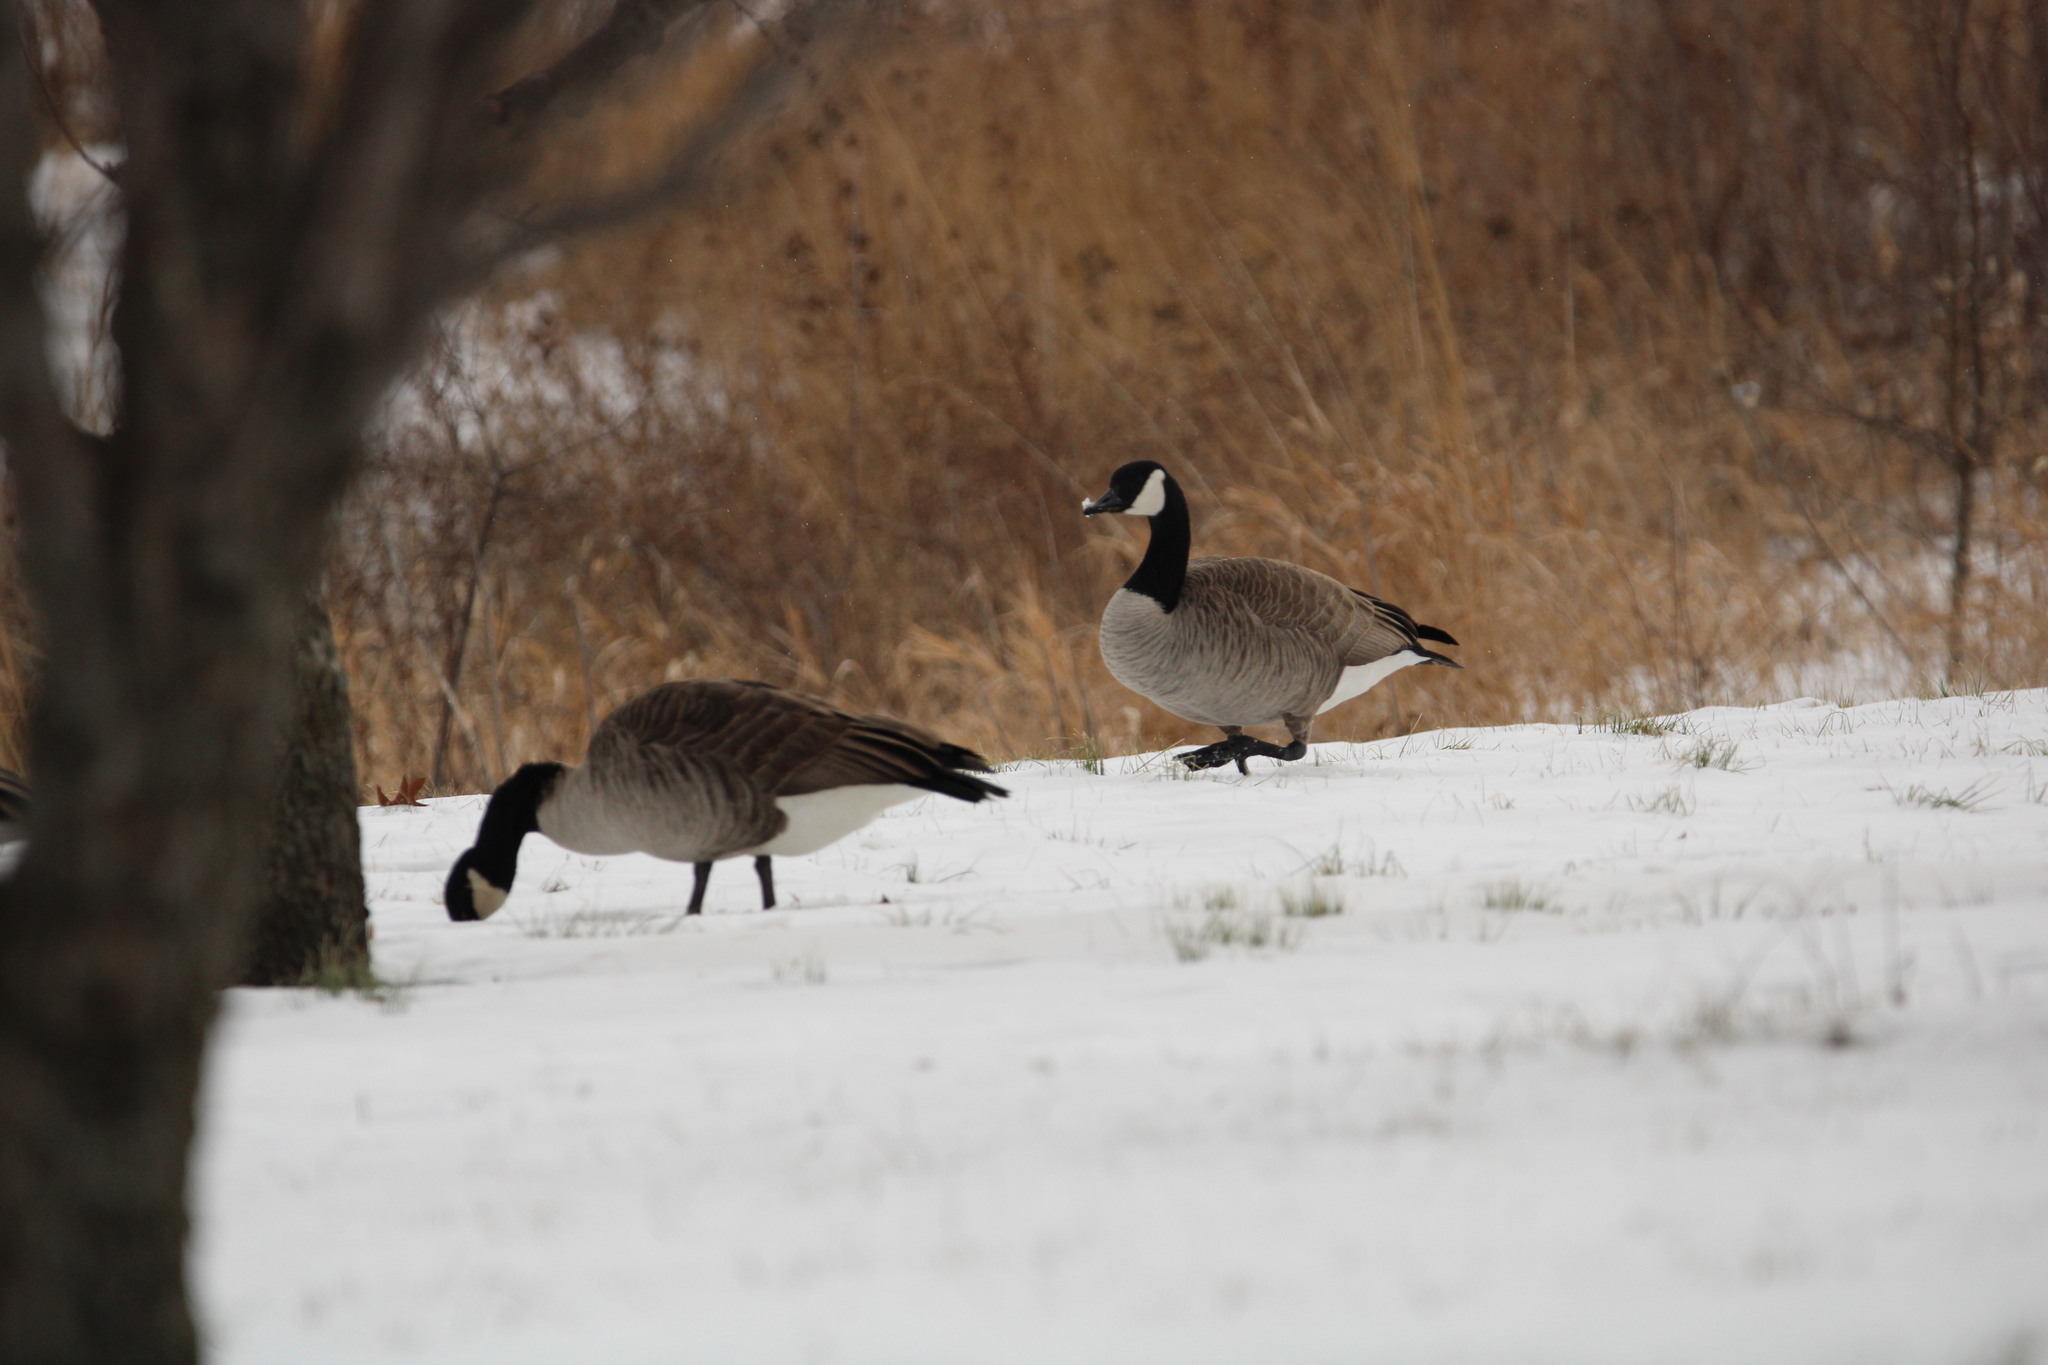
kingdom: Animalia
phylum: Chordata
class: Aves
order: Anseriformes
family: Anatidae
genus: Branta
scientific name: Branta canadensis
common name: Canada goose
